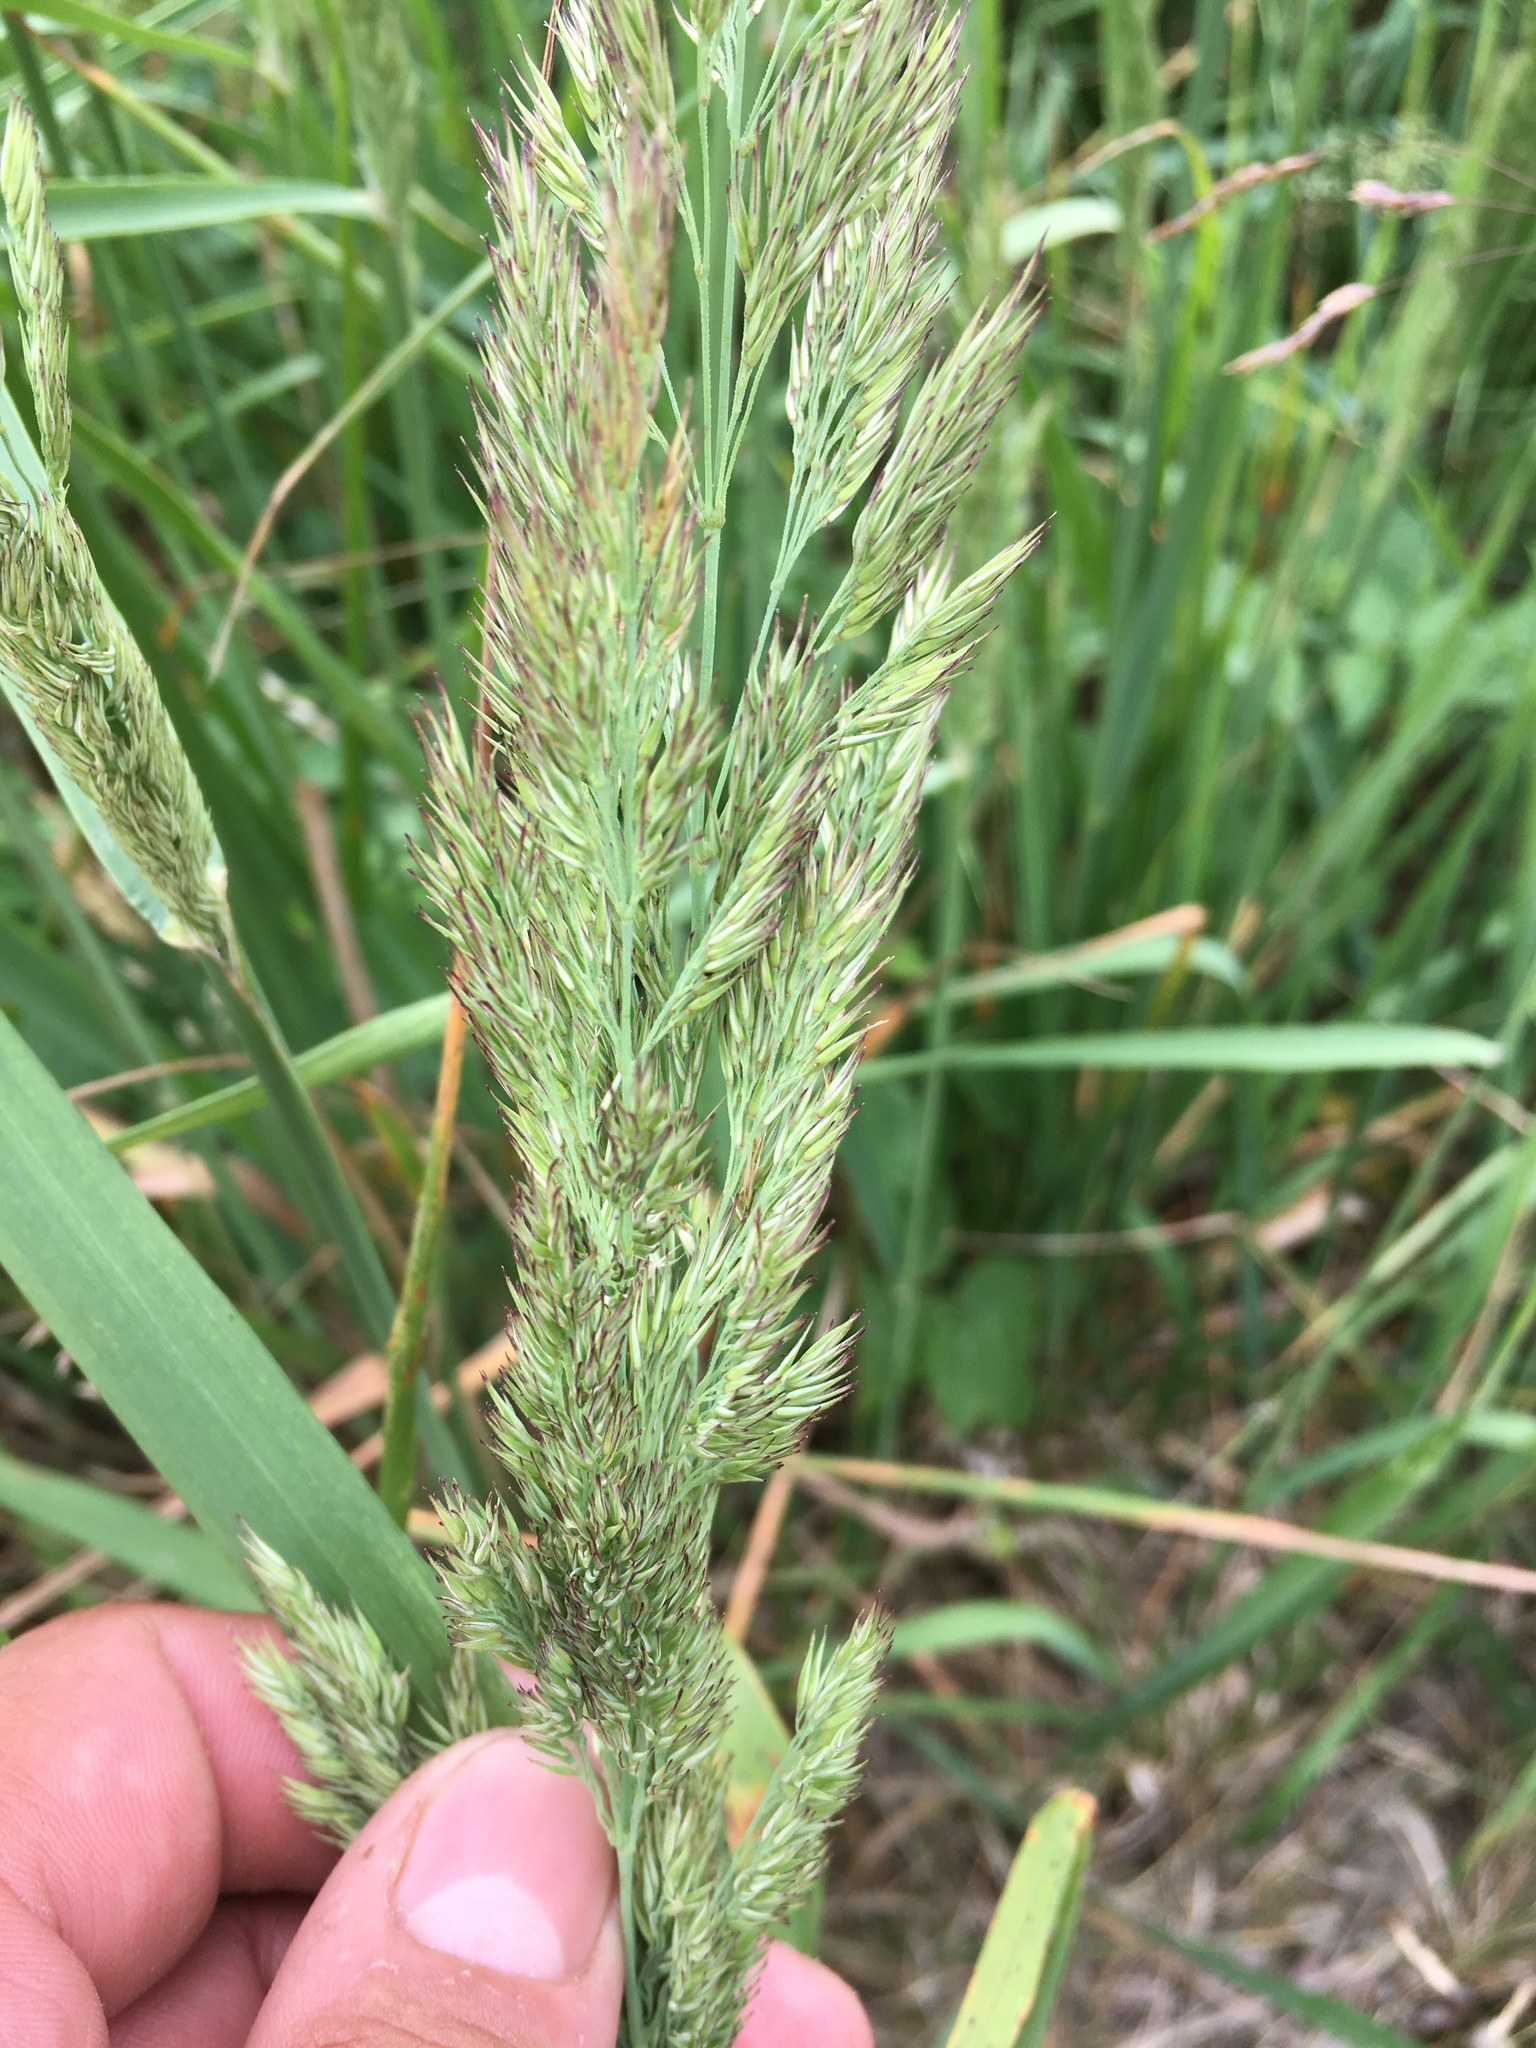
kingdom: Plantae
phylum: Tracheophyta
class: Liliopsida
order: Poales
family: Poaceae
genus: Calamagrostis
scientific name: Calamagrostis epigejos
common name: Wood small-reed
